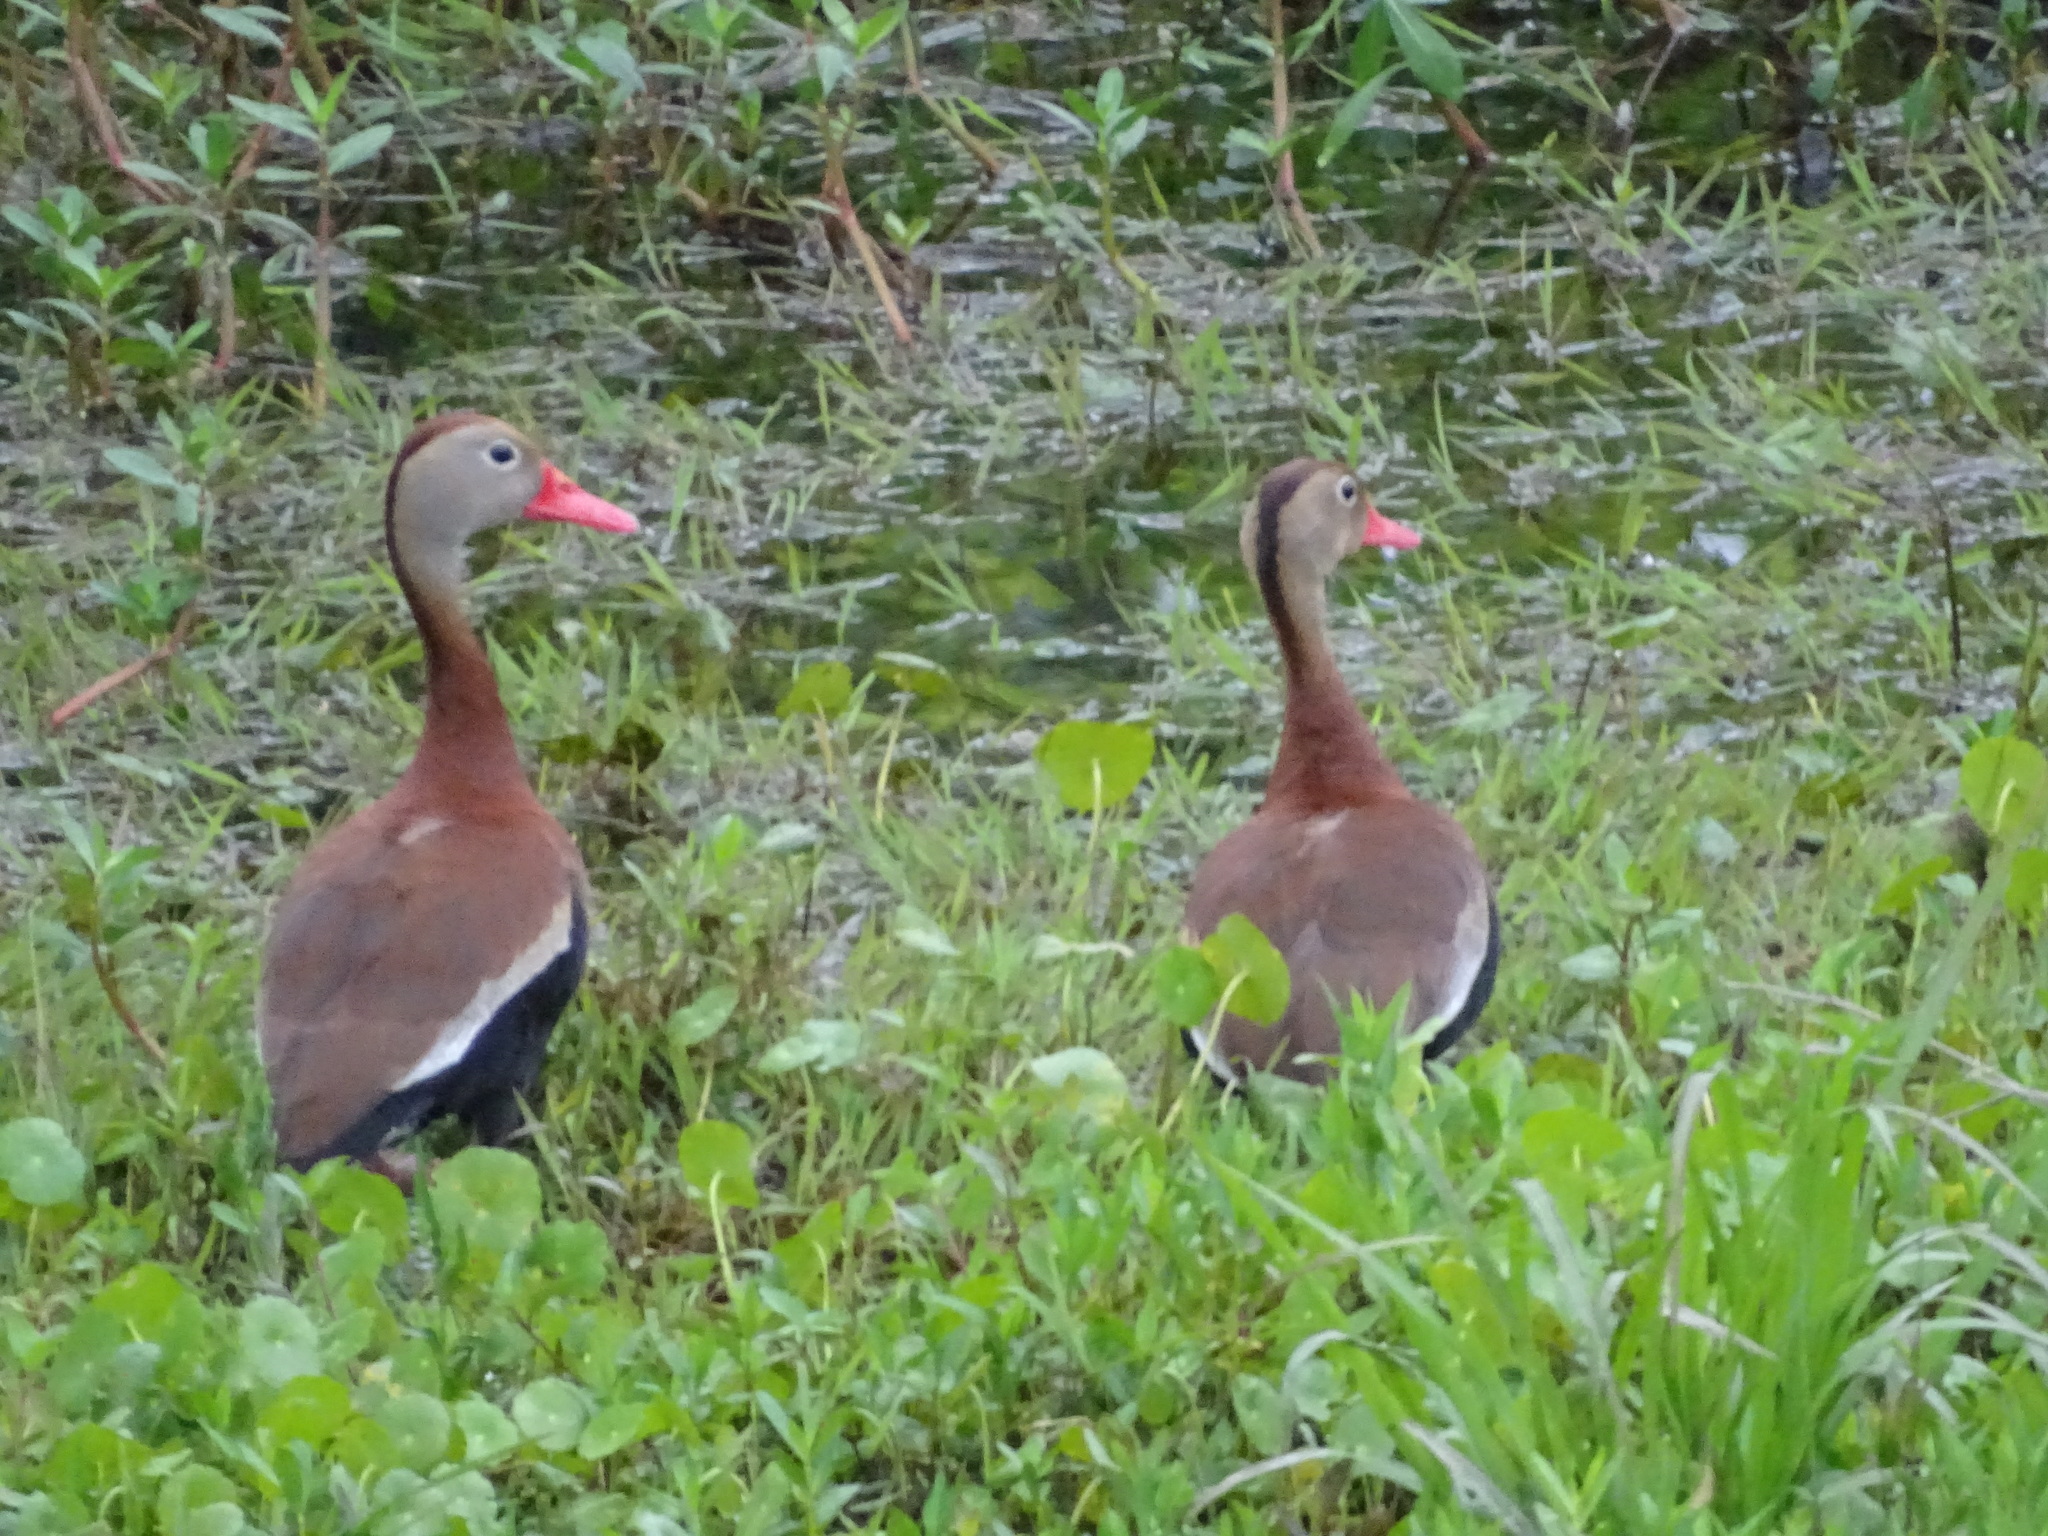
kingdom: Animalia
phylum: Chordata
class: Aves
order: Anseriformes
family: Anatidae
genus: Dendrocygna
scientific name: Dendrocygna autumnalis
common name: Black-bellied whistling duck
